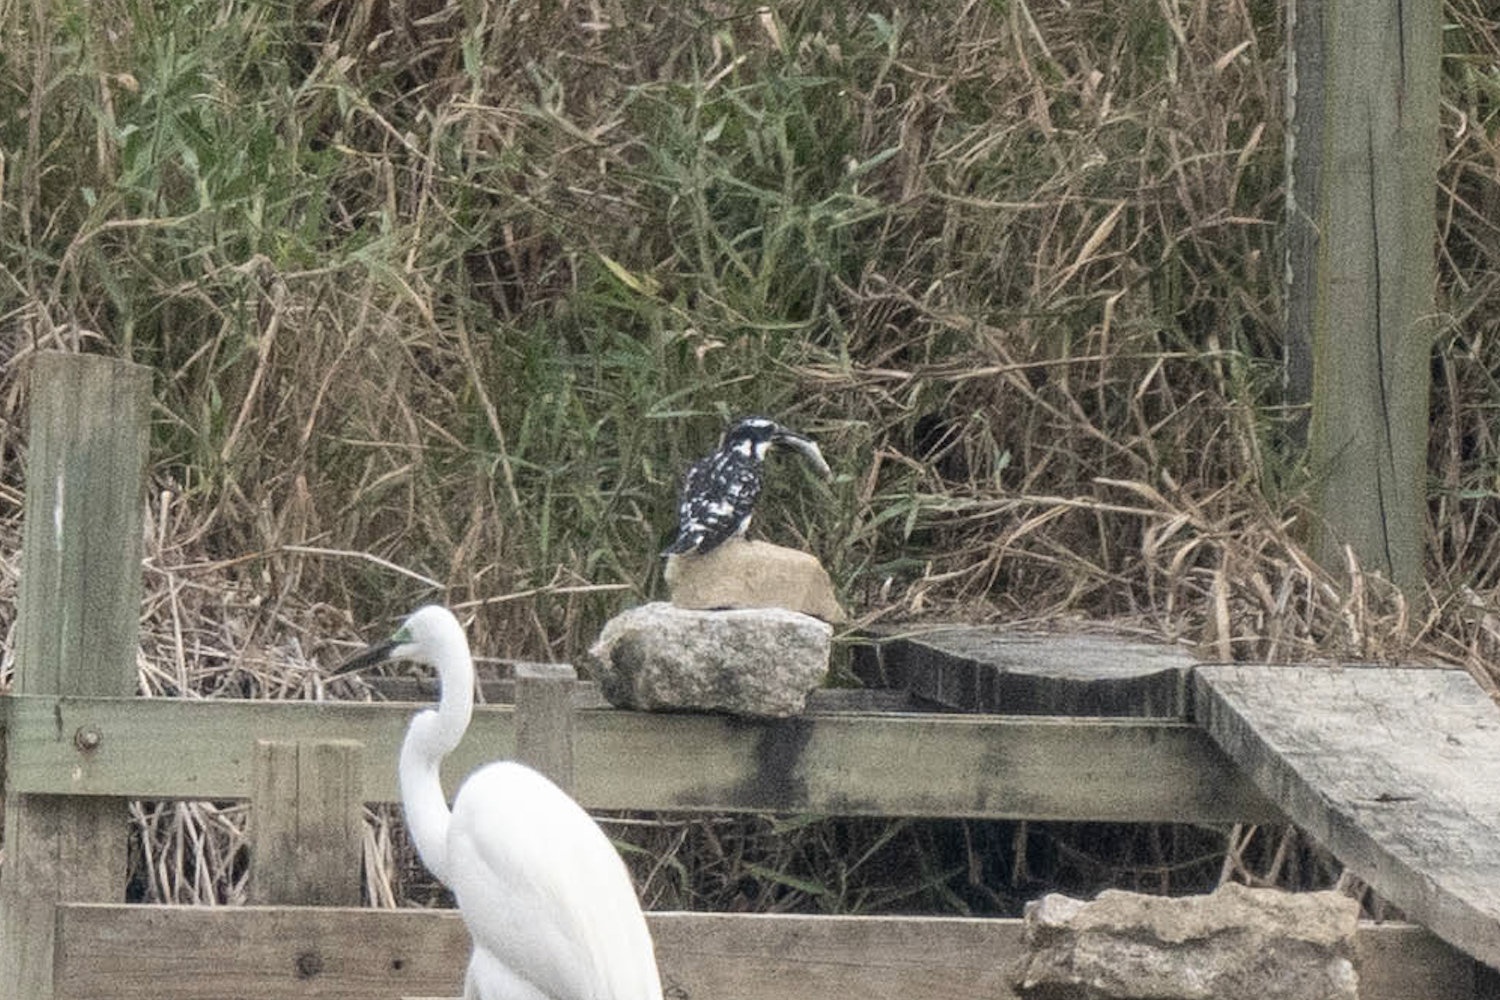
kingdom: Animalia
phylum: Chordata
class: Aves
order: Coraciiformes
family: Alcedinidae
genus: Ceryle
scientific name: Ceryle rudis
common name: Pied kingfisher
